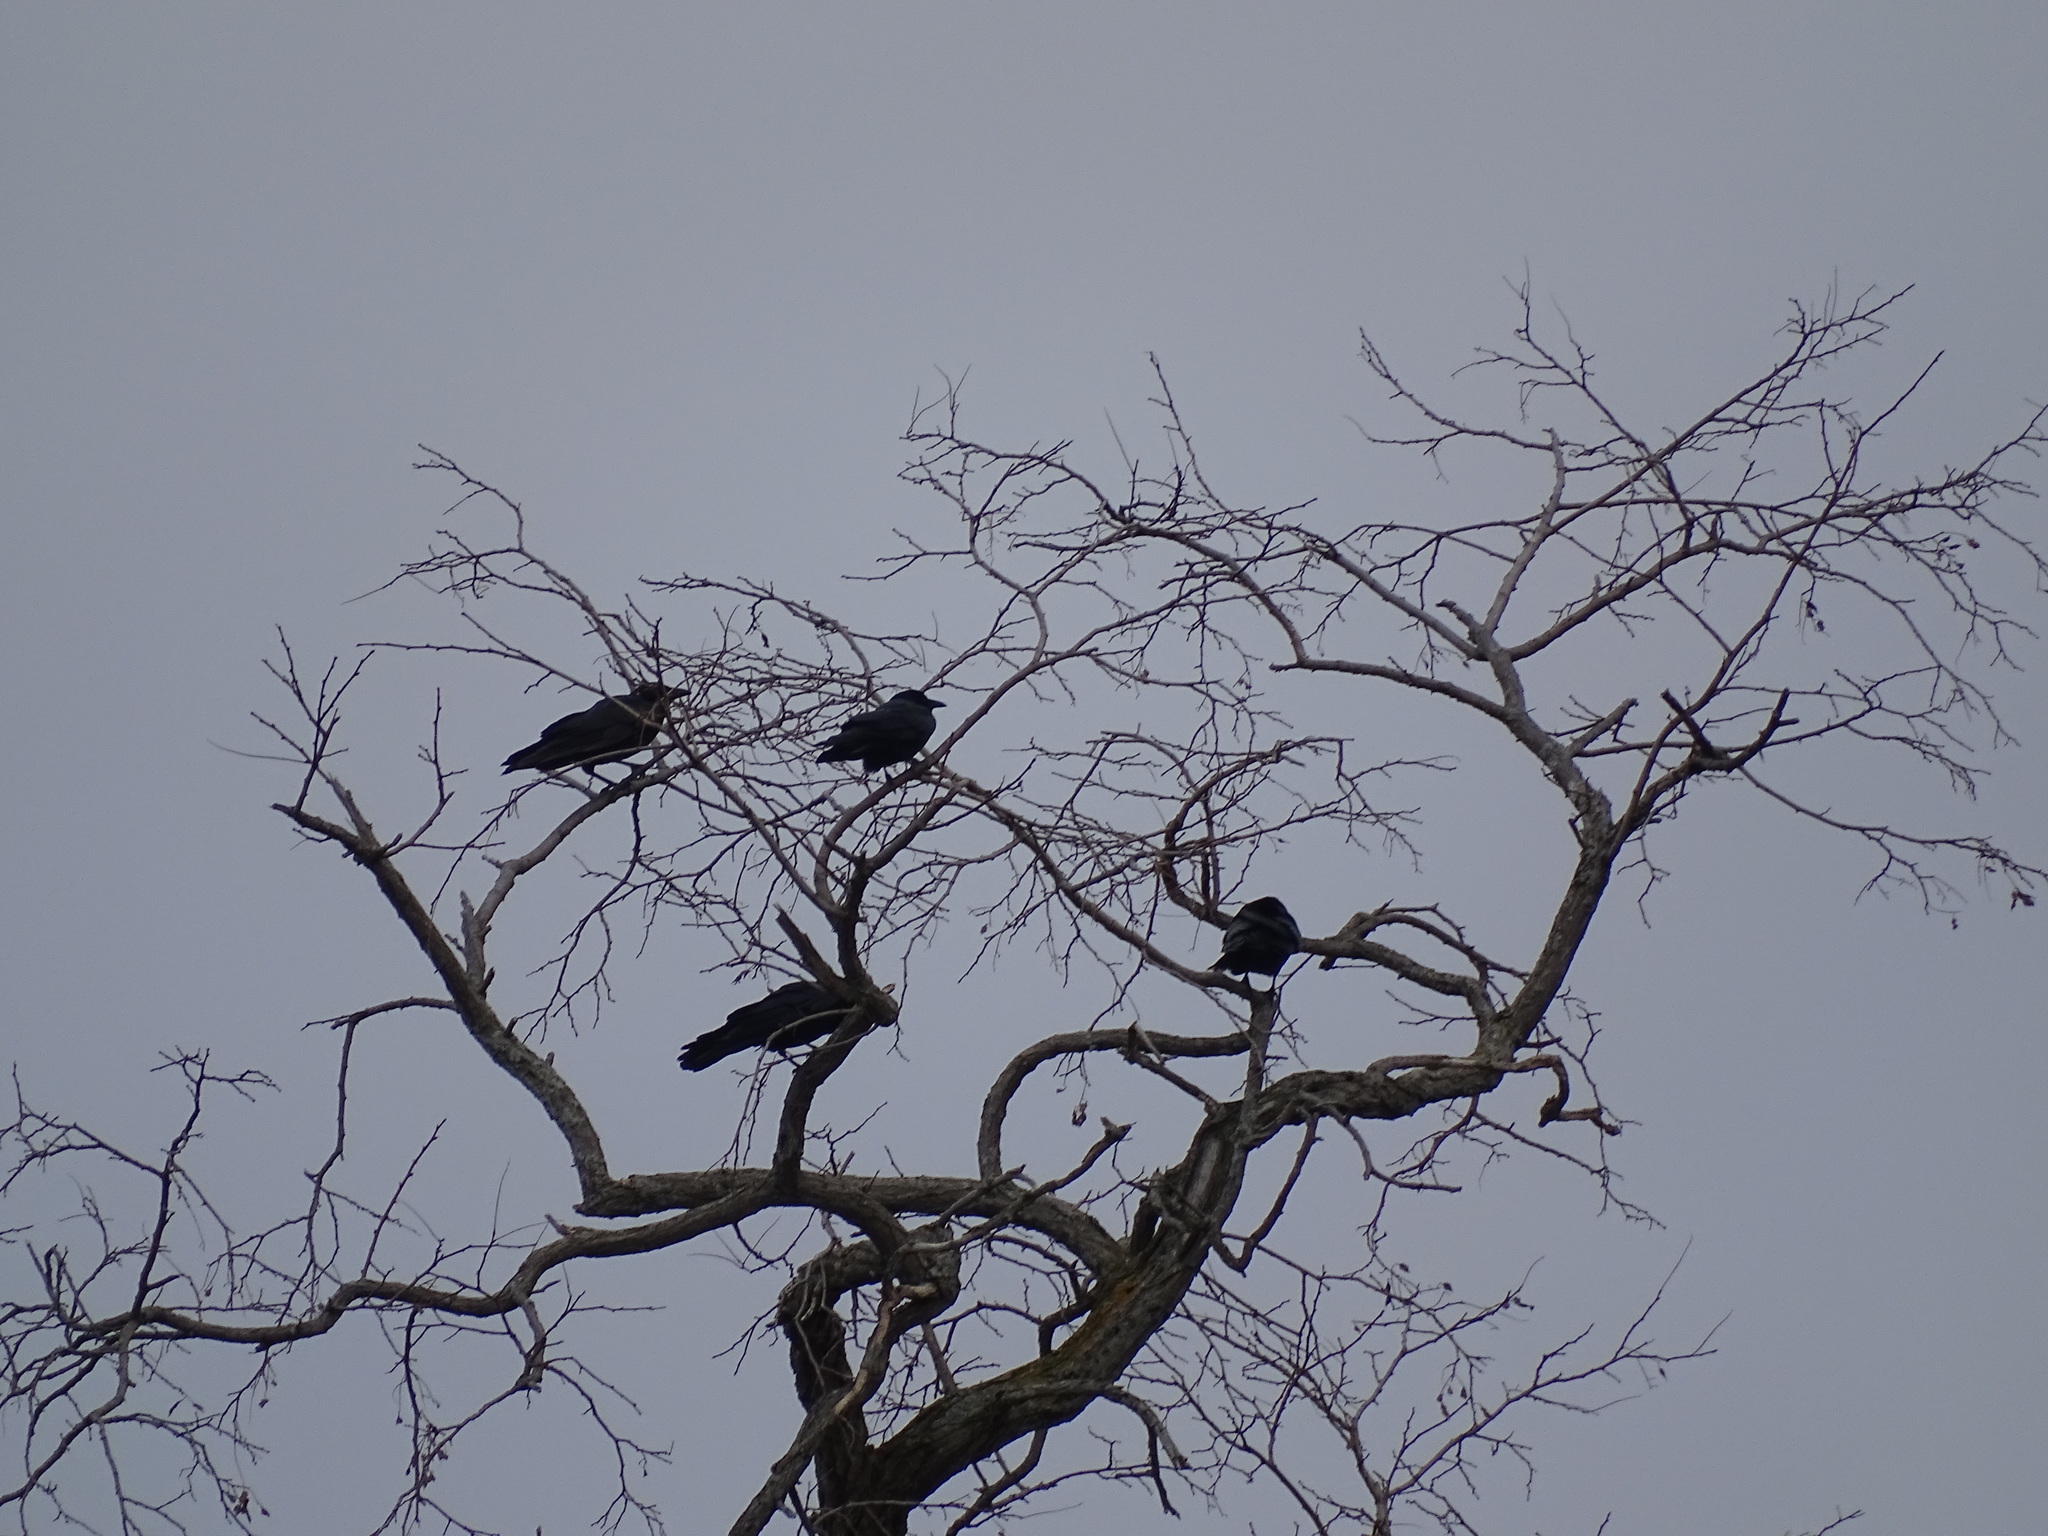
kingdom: Animalia
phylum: Chordata
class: Aves
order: Passeriformes
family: Corvidae
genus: Corvus
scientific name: Corvus brachyrhynchos
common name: American crow
